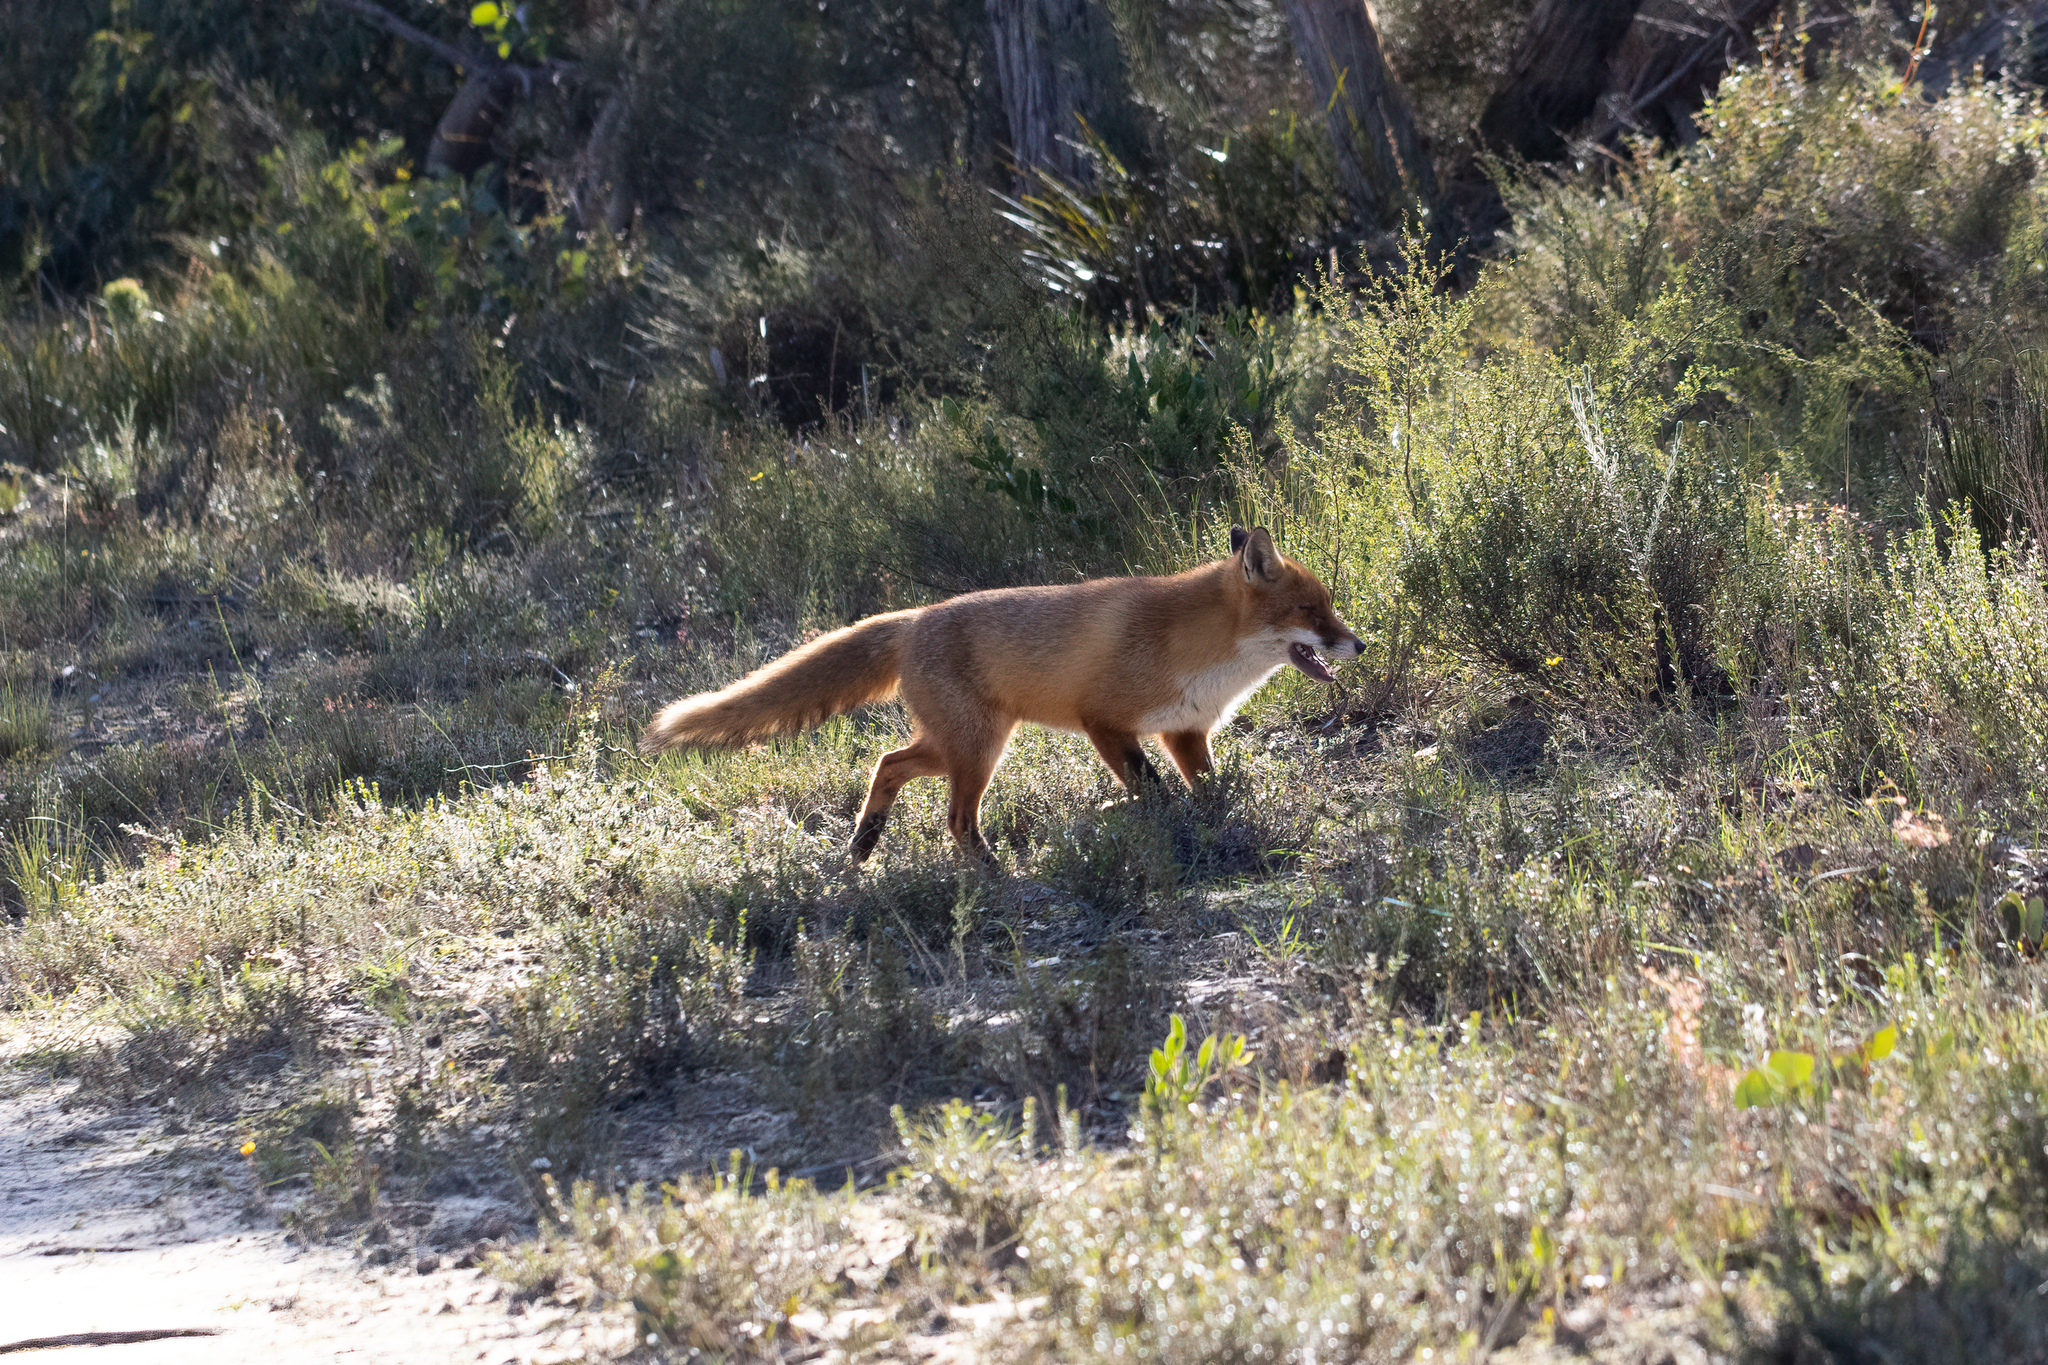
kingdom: Animalia
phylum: Chordata
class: Mammalia
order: Carnivora
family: Canidae
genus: Vulpes
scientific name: Vulpes vulpes
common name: Red fox
